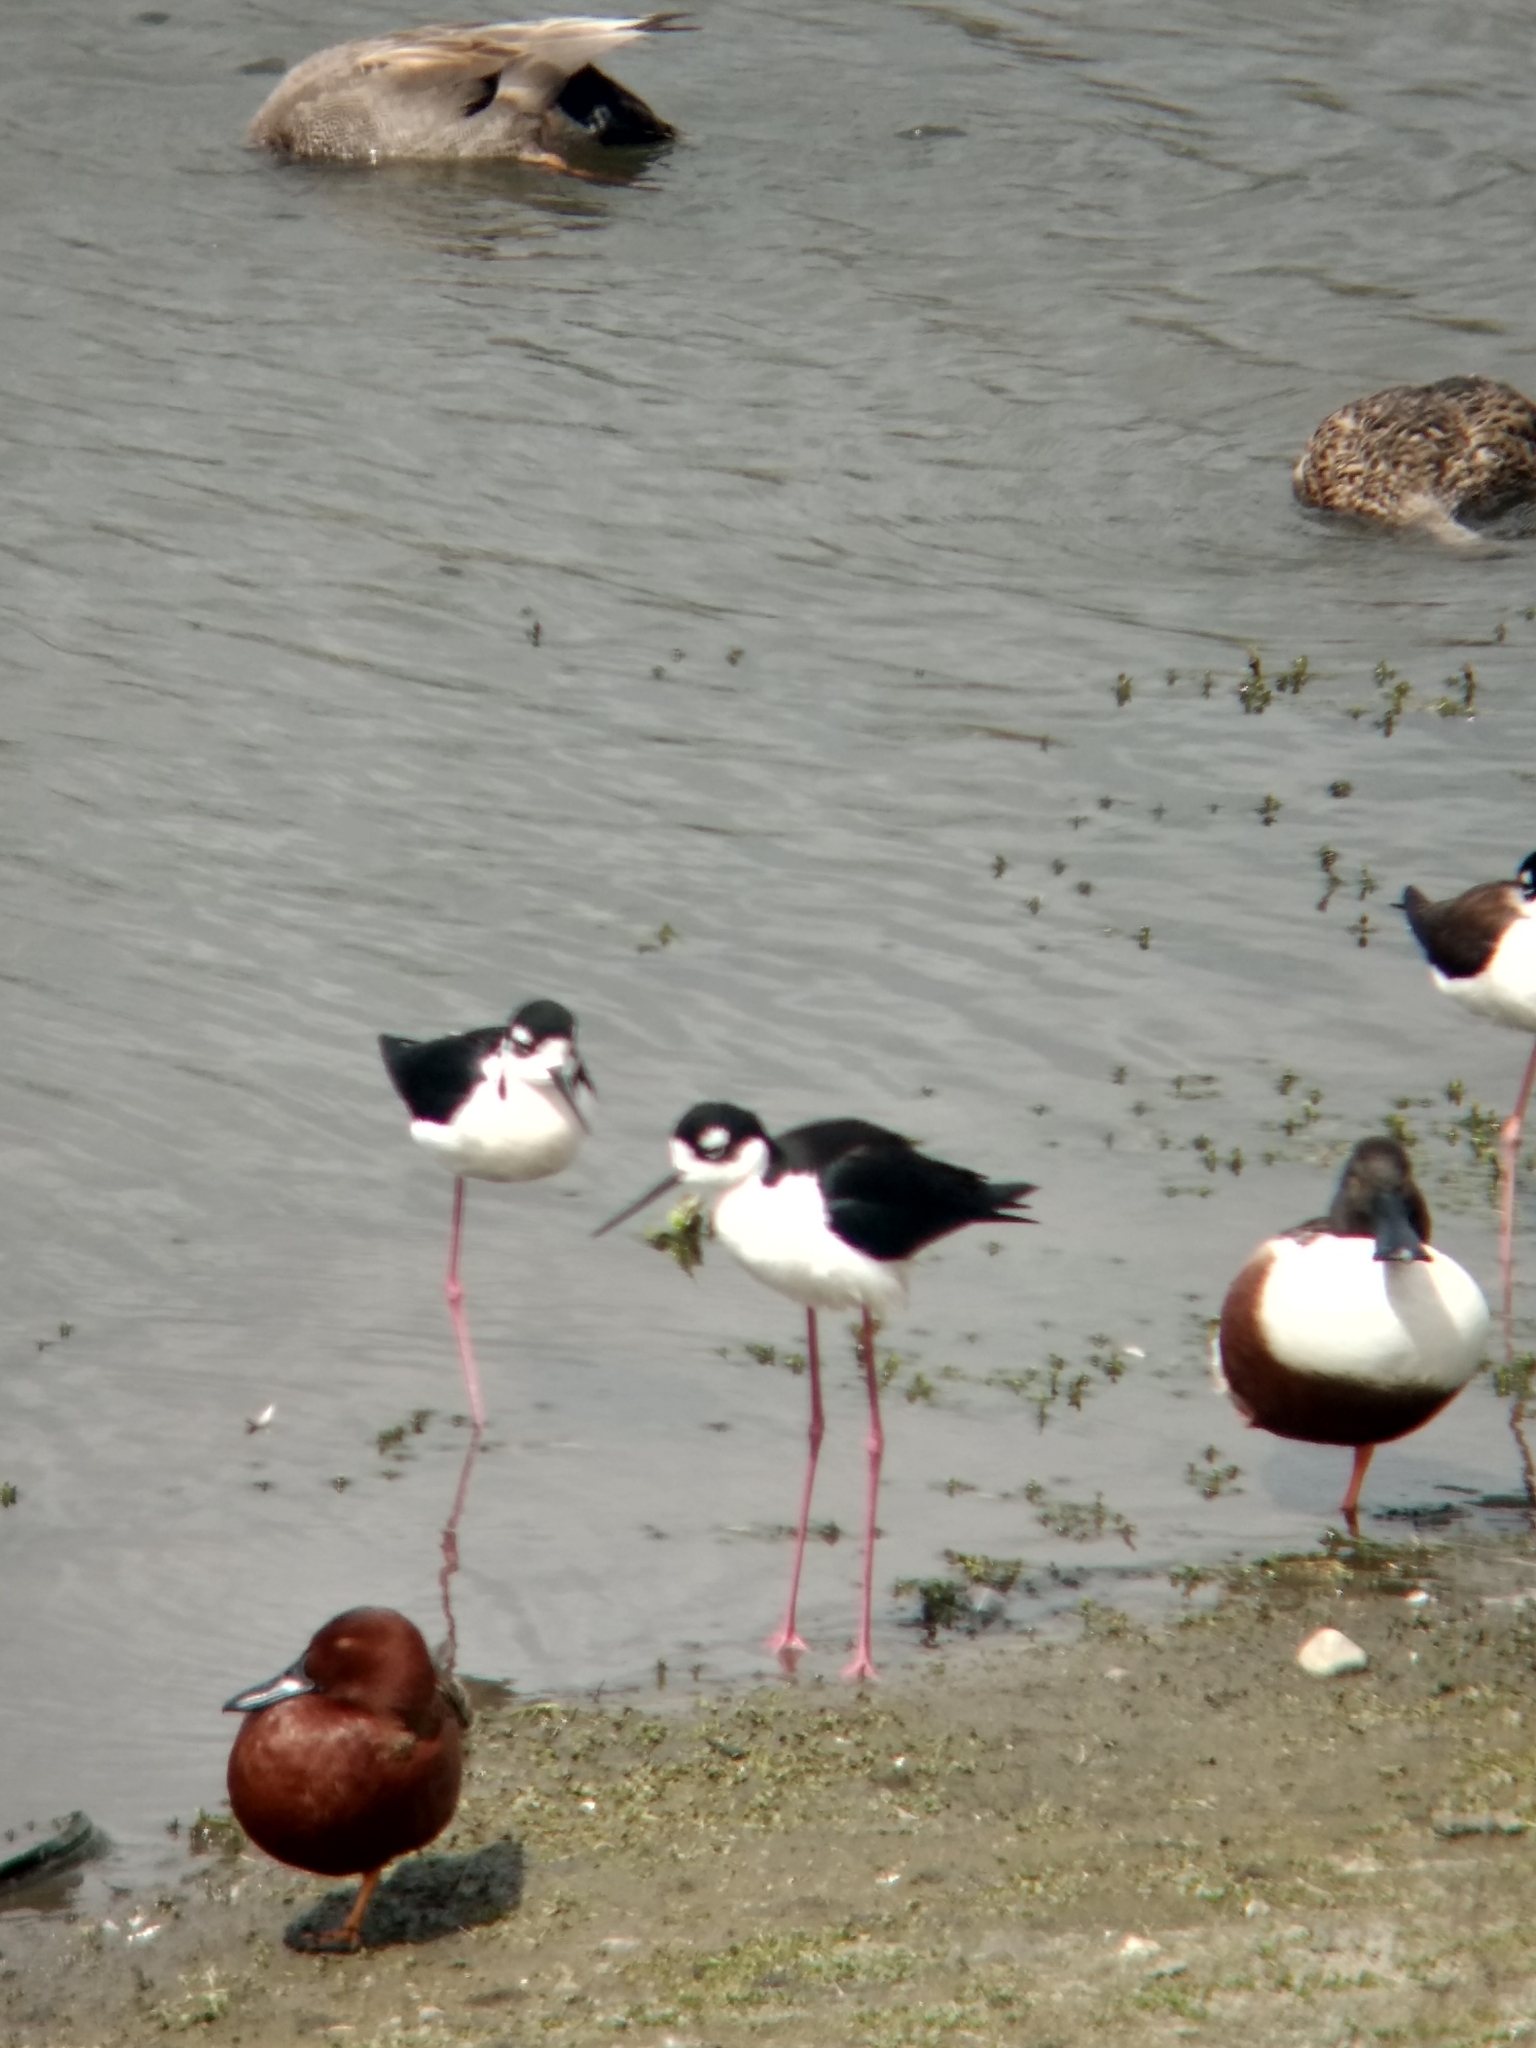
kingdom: Animalia
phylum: Chordata
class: Aves
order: Charadriiformes
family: Recurvirostridae
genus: Himantopus
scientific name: Himantopus mexicanus
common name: Black-necked stilt
